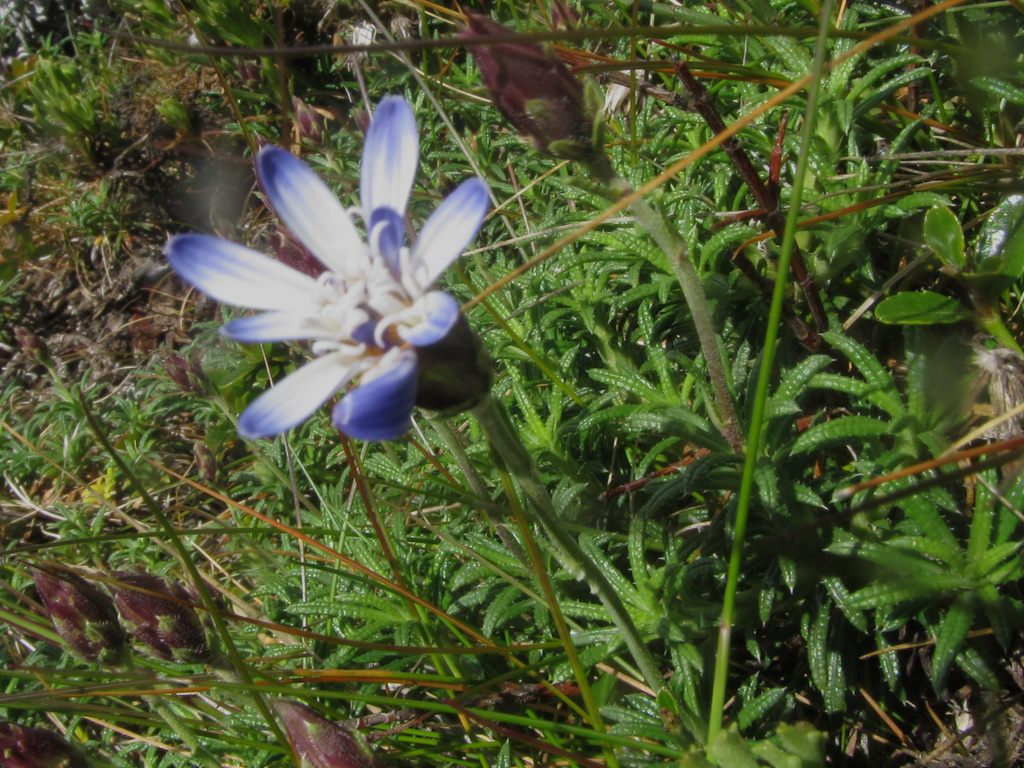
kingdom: Plantae
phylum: Tracheophyta
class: Magnoliopsida
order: Asterales
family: Asteraceae
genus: Perezia
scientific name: Perezia recurvata
